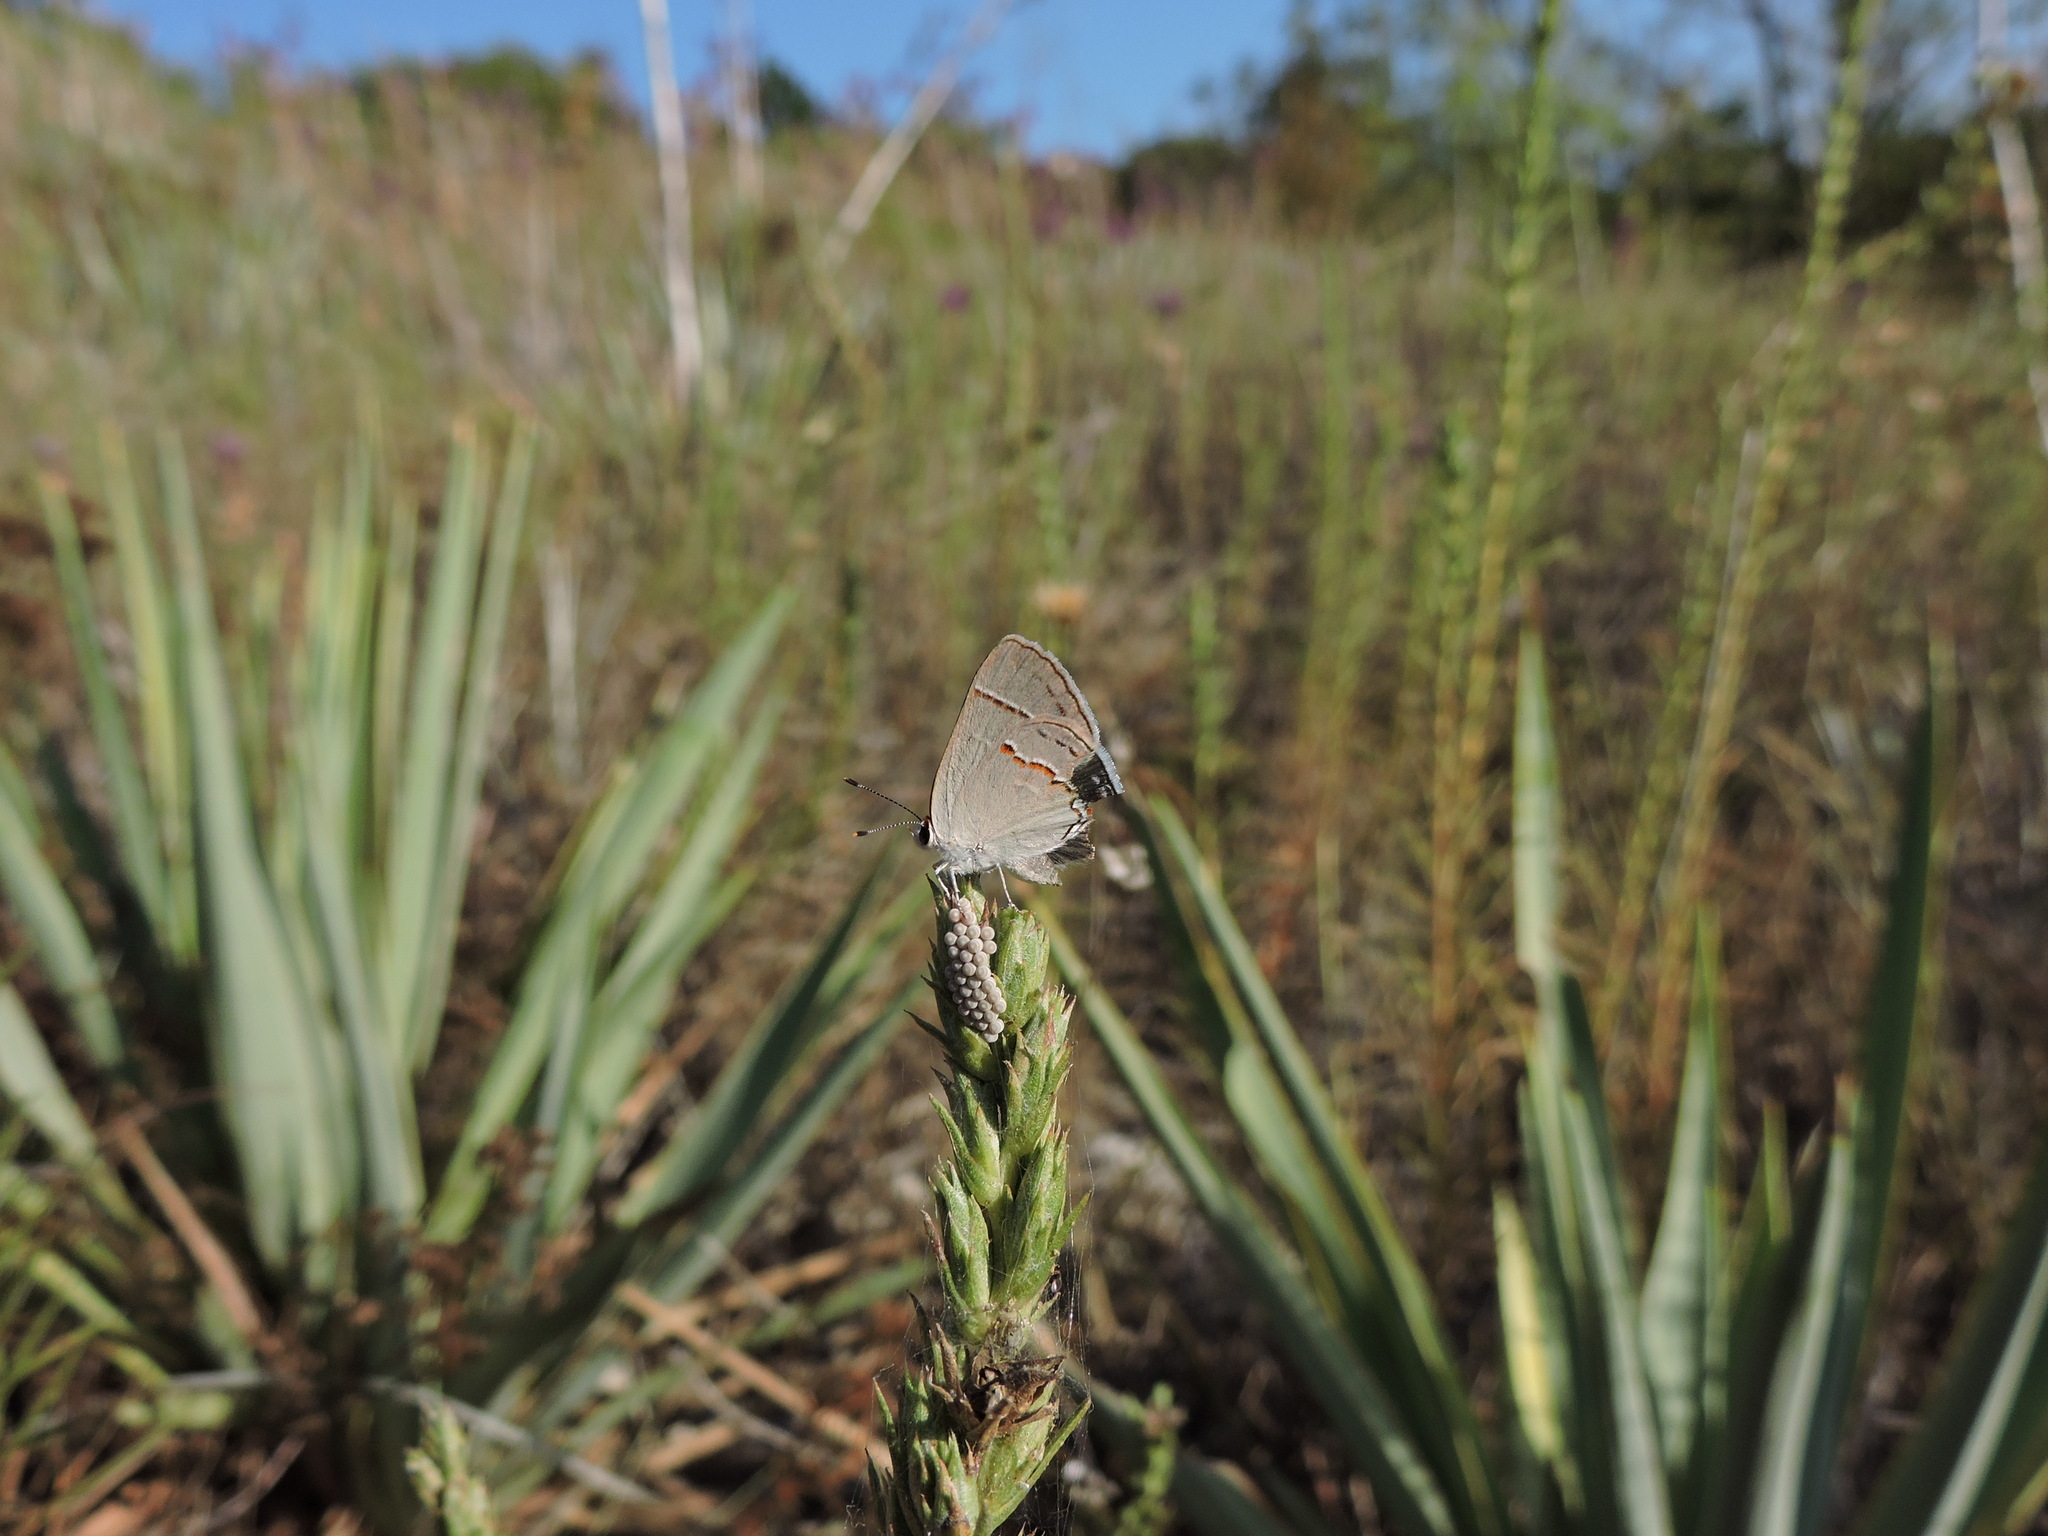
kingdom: Animalia
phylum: Arthropoda
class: Insecta
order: Lepidoptera
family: Lycaenidae
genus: Strymon
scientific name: Strymon melinus
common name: Gray hairstreak
